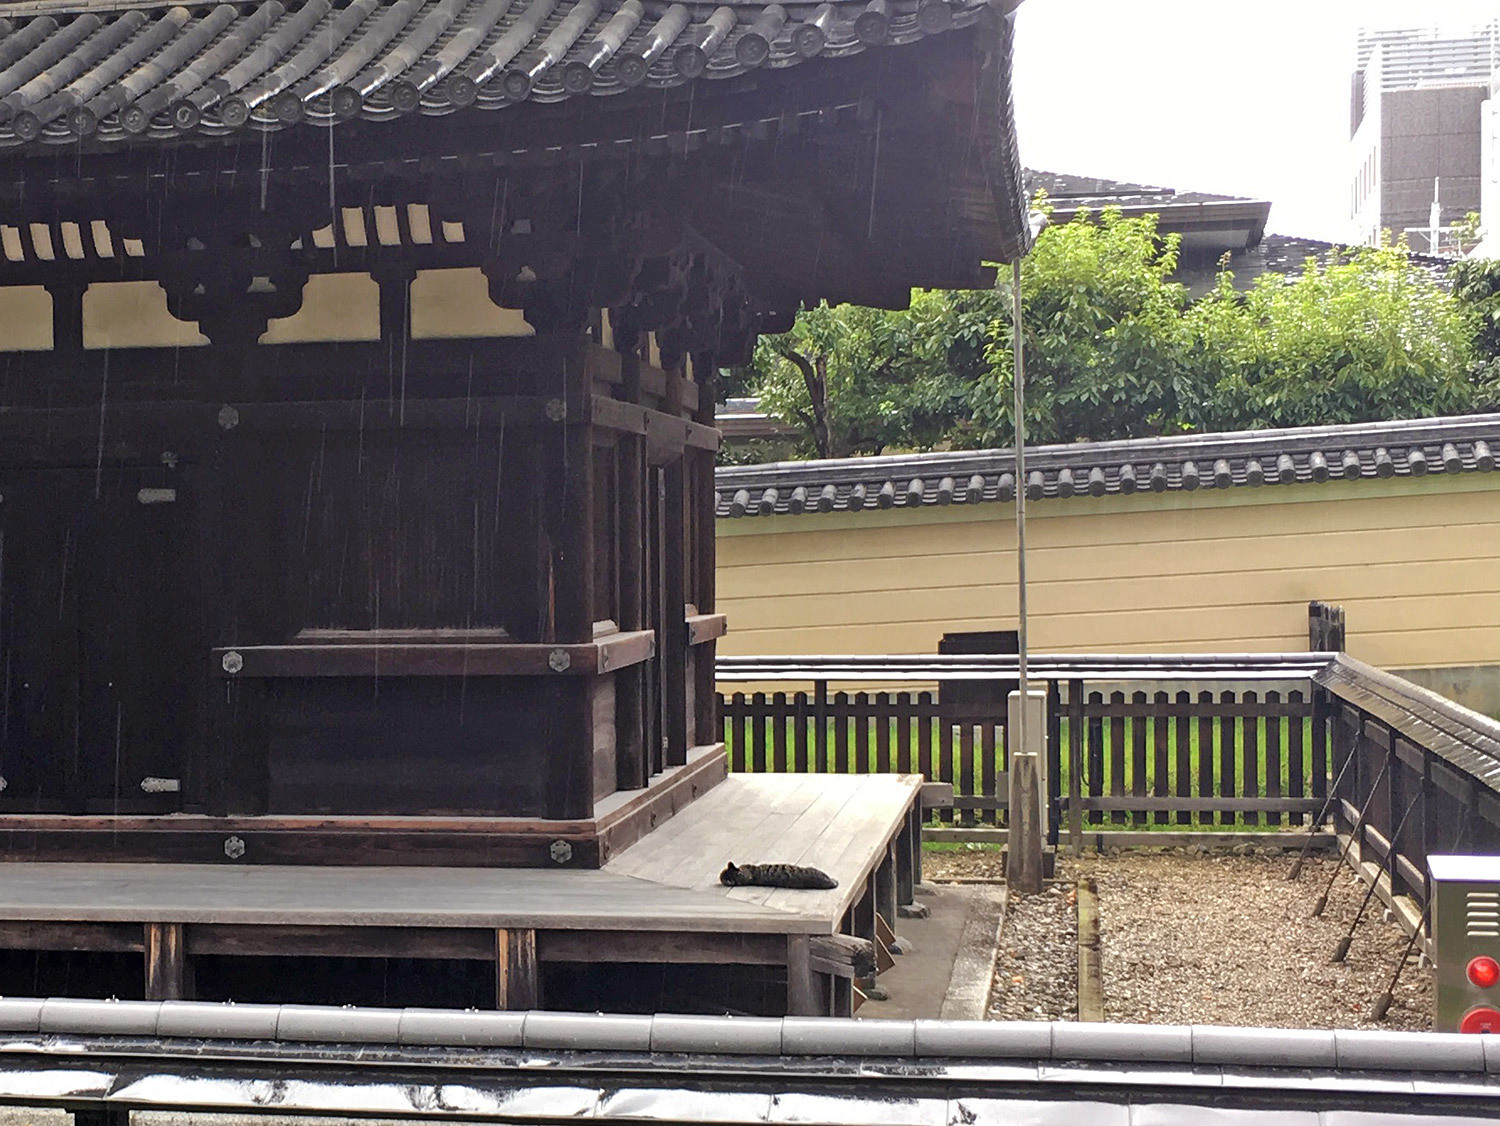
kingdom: Animalia
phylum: Chordata
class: Mammalia
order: Carnivora
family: Felidae
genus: Felis
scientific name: Felis catus
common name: Domestic cat
